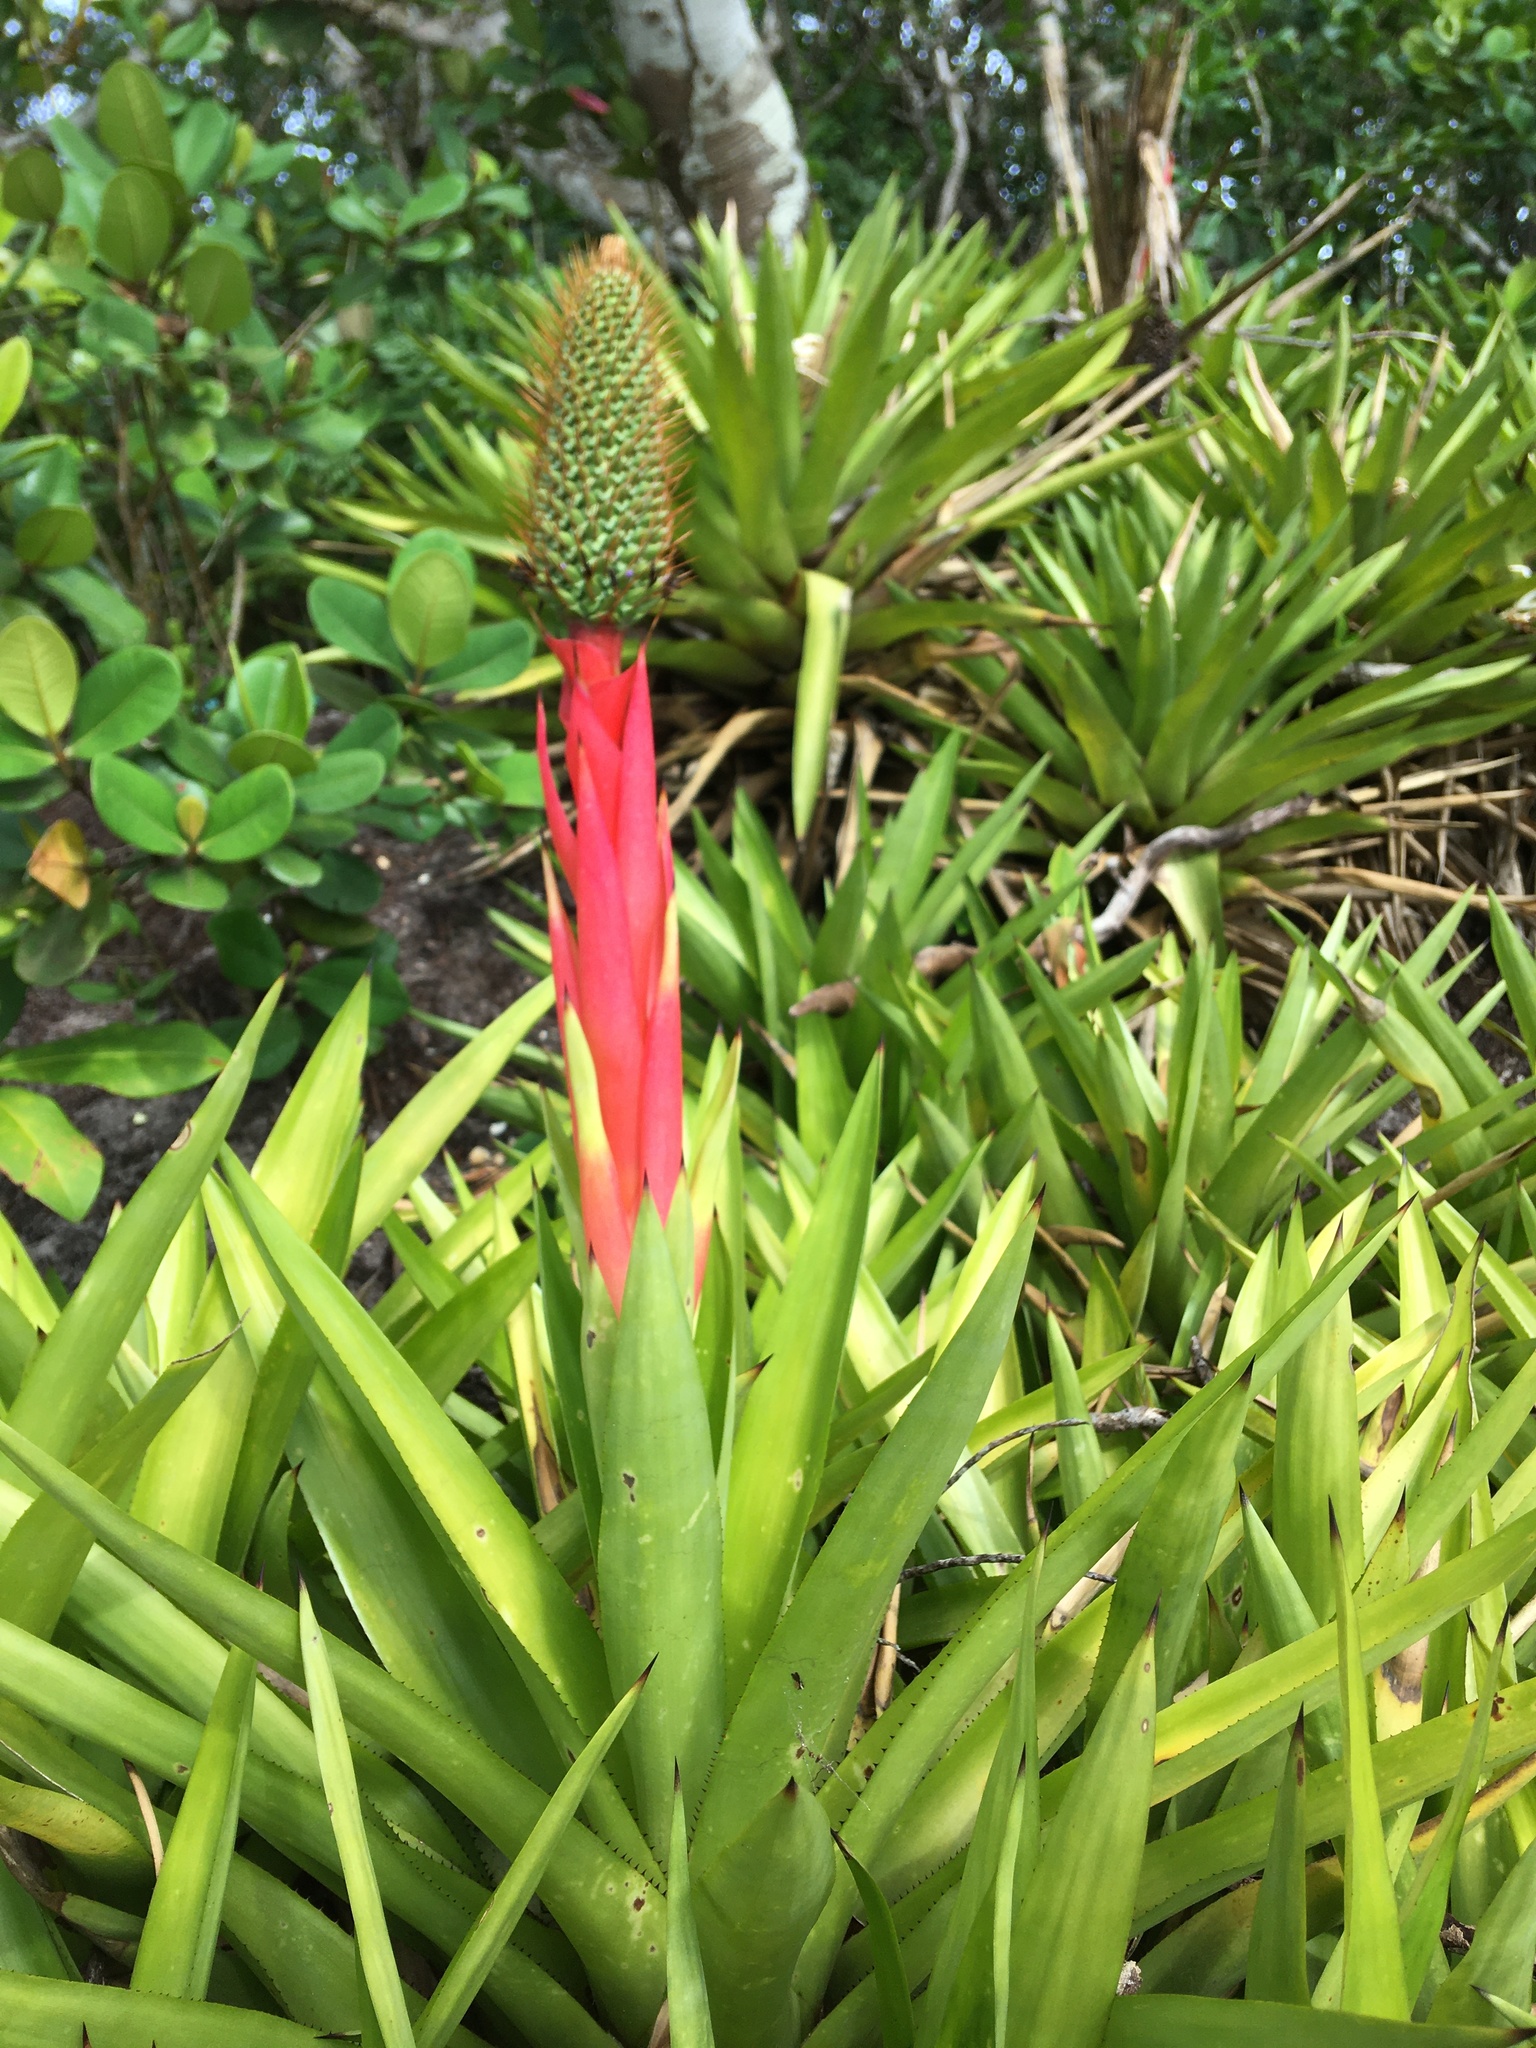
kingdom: Plantae
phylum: Tracheophyta
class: Liliopsida
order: Poales
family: Bromeliaceae
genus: Aechmea
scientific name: Aechmea ornata
